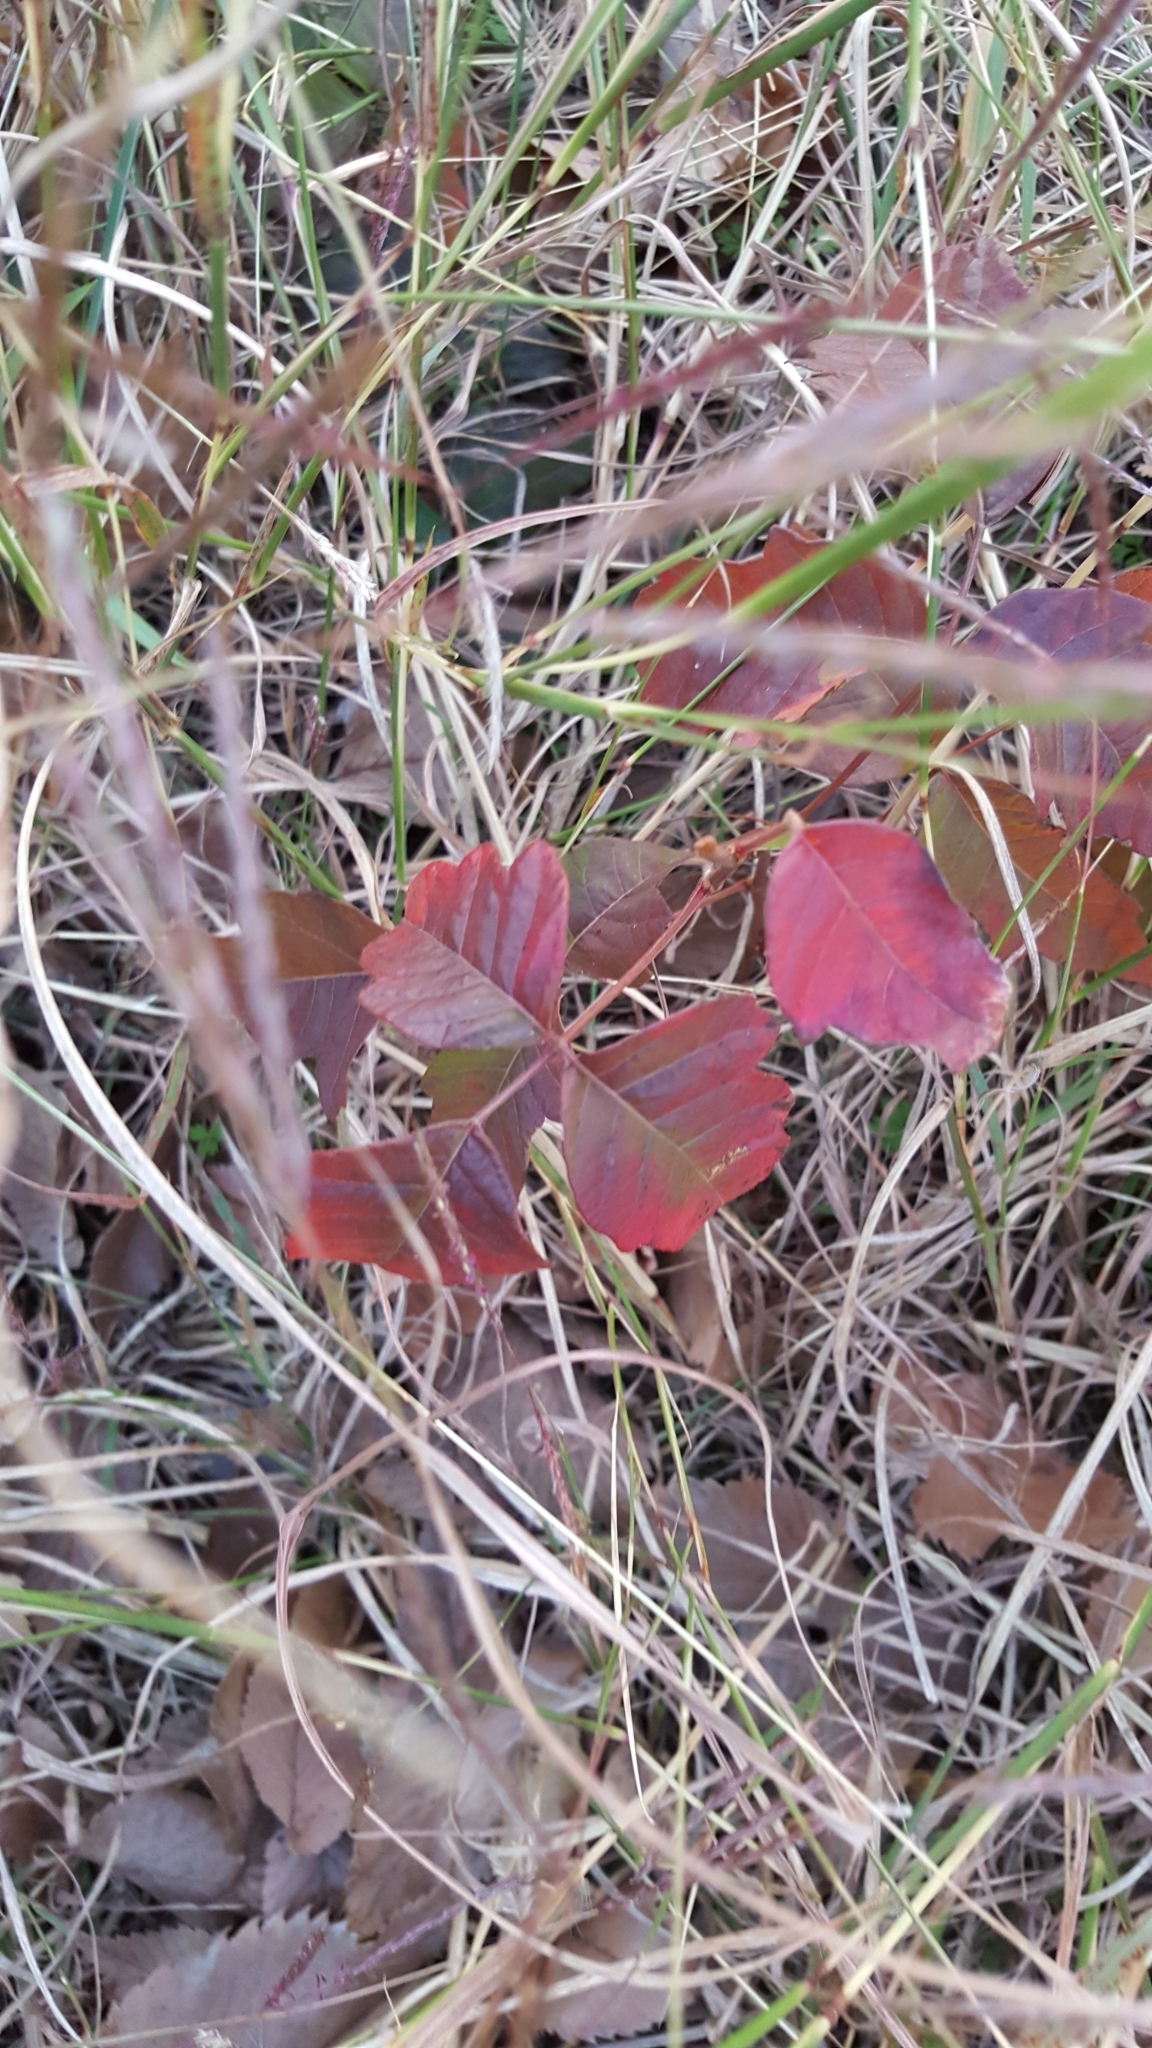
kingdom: Plantae
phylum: Tracheophyta
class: Magnoliopsida
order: Sapindales
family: Anacardiaceae
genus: Toxicodendron
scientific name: Toxicodendron radicans
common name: Poison ivy
